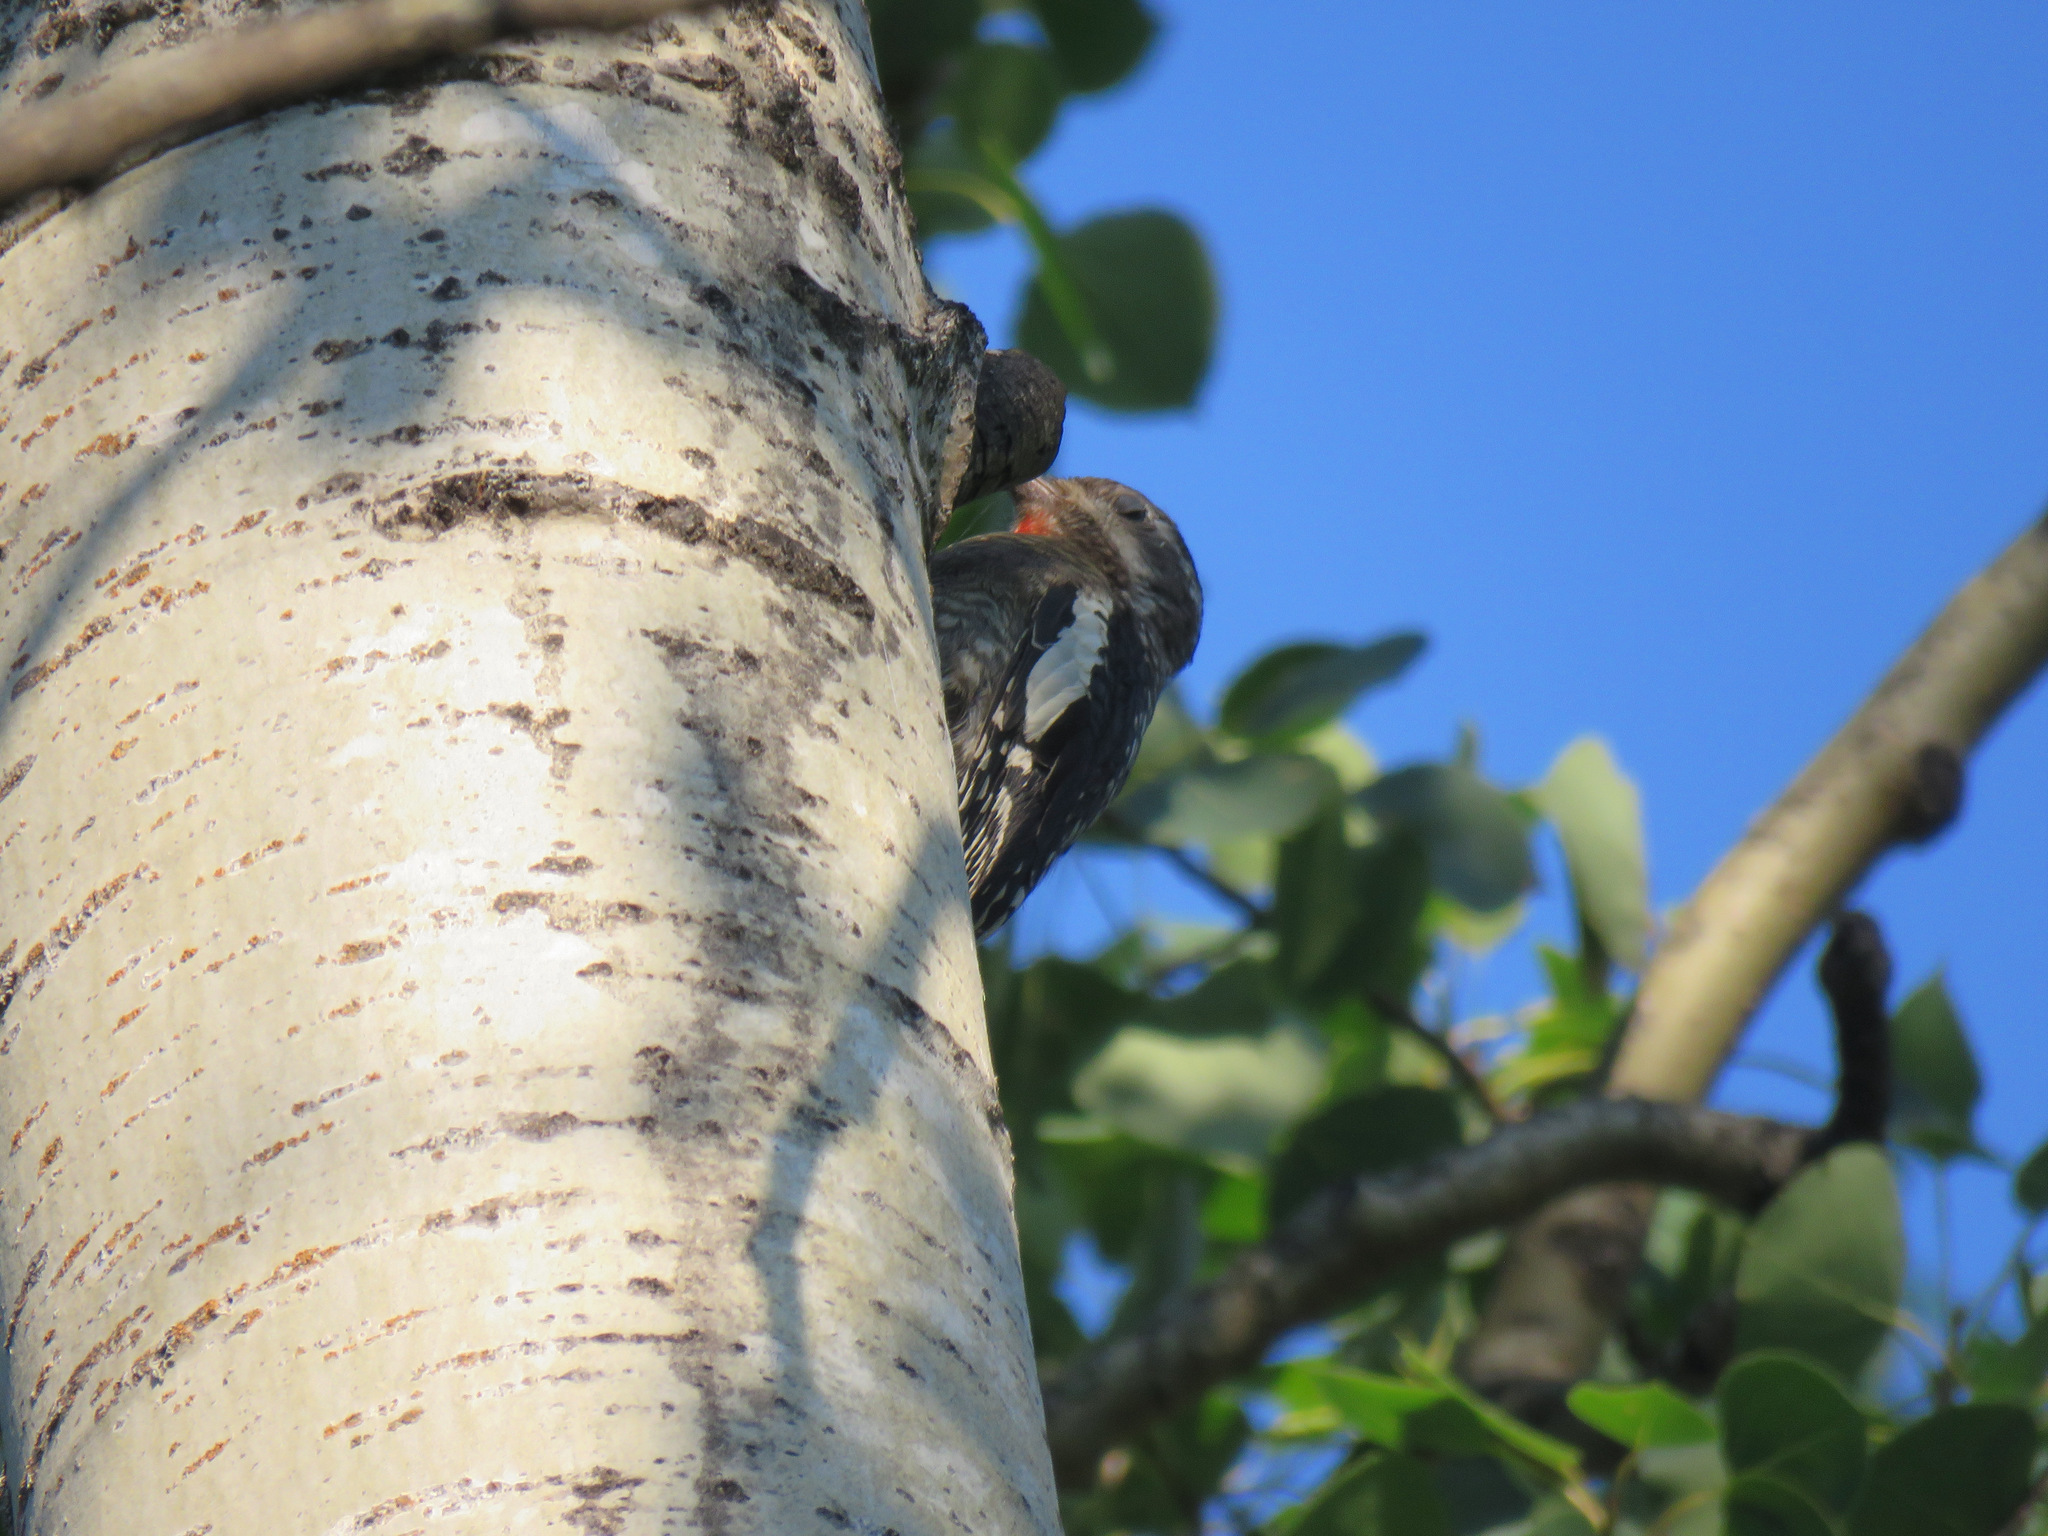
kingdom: Animalia
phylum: Chordata
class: Aves
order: Piciformes
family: Picidae
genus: Sphyrapicus
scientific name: Sphyrapicus nuchalis
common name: Red-naped sapsucker
